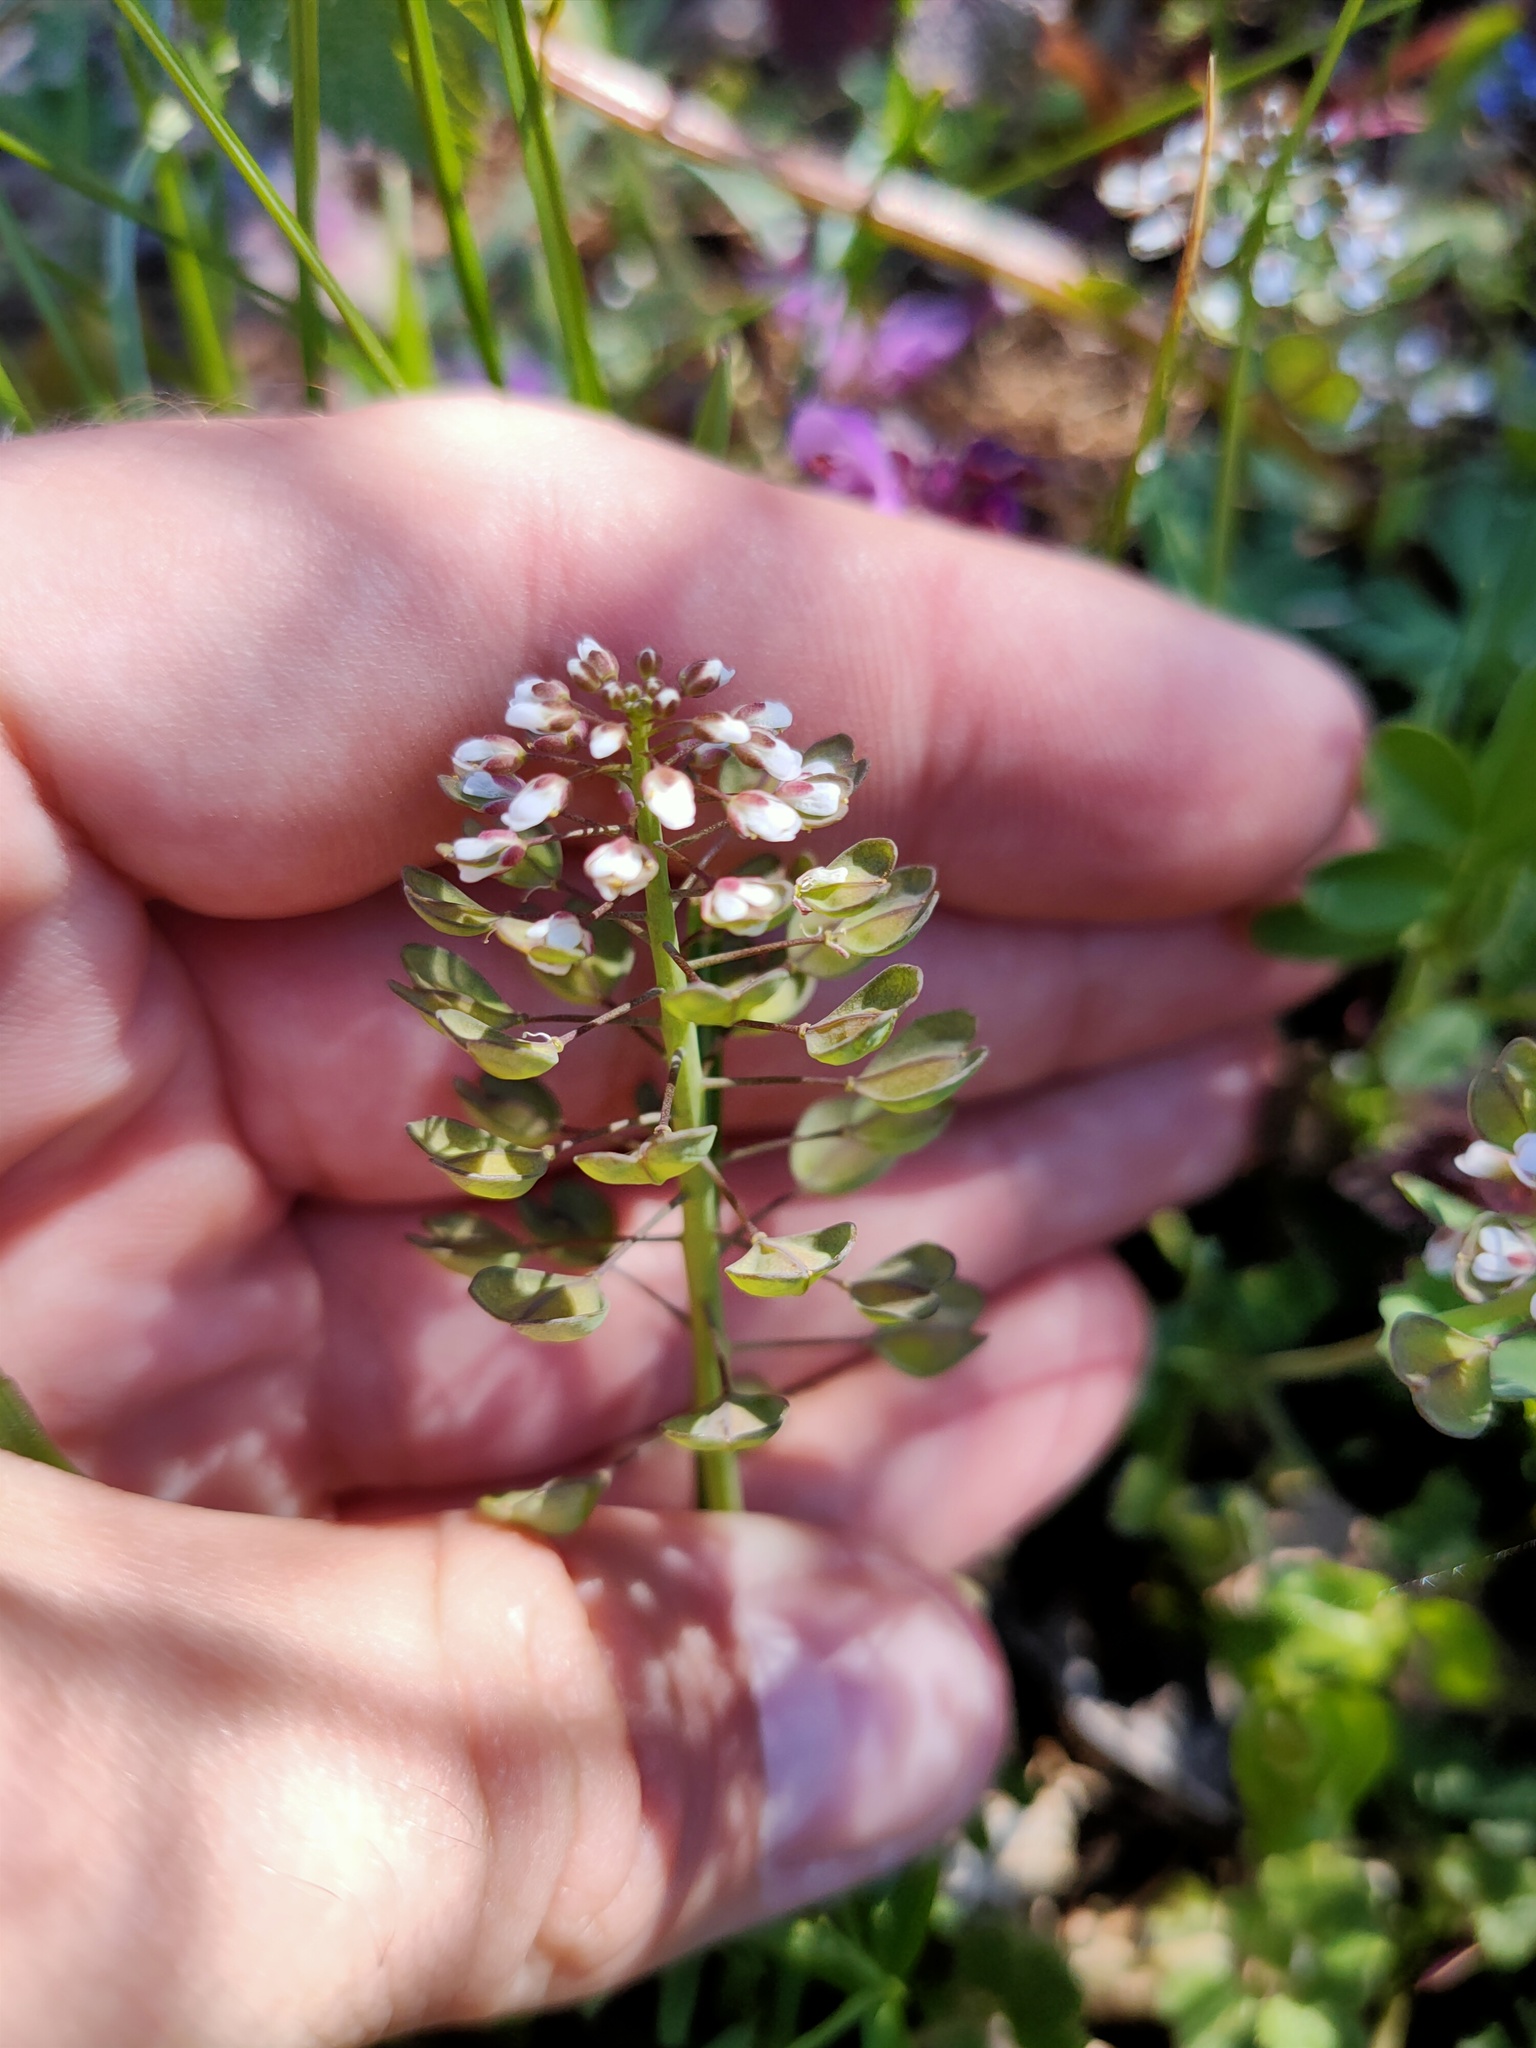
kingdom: Plantae
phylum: Tracheophyta
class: Magnoliopsida
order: Brassicales
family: Brassicaceae
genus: Noccaea
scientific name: Noccaea perfoliata
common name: Perfoliate pennycress
